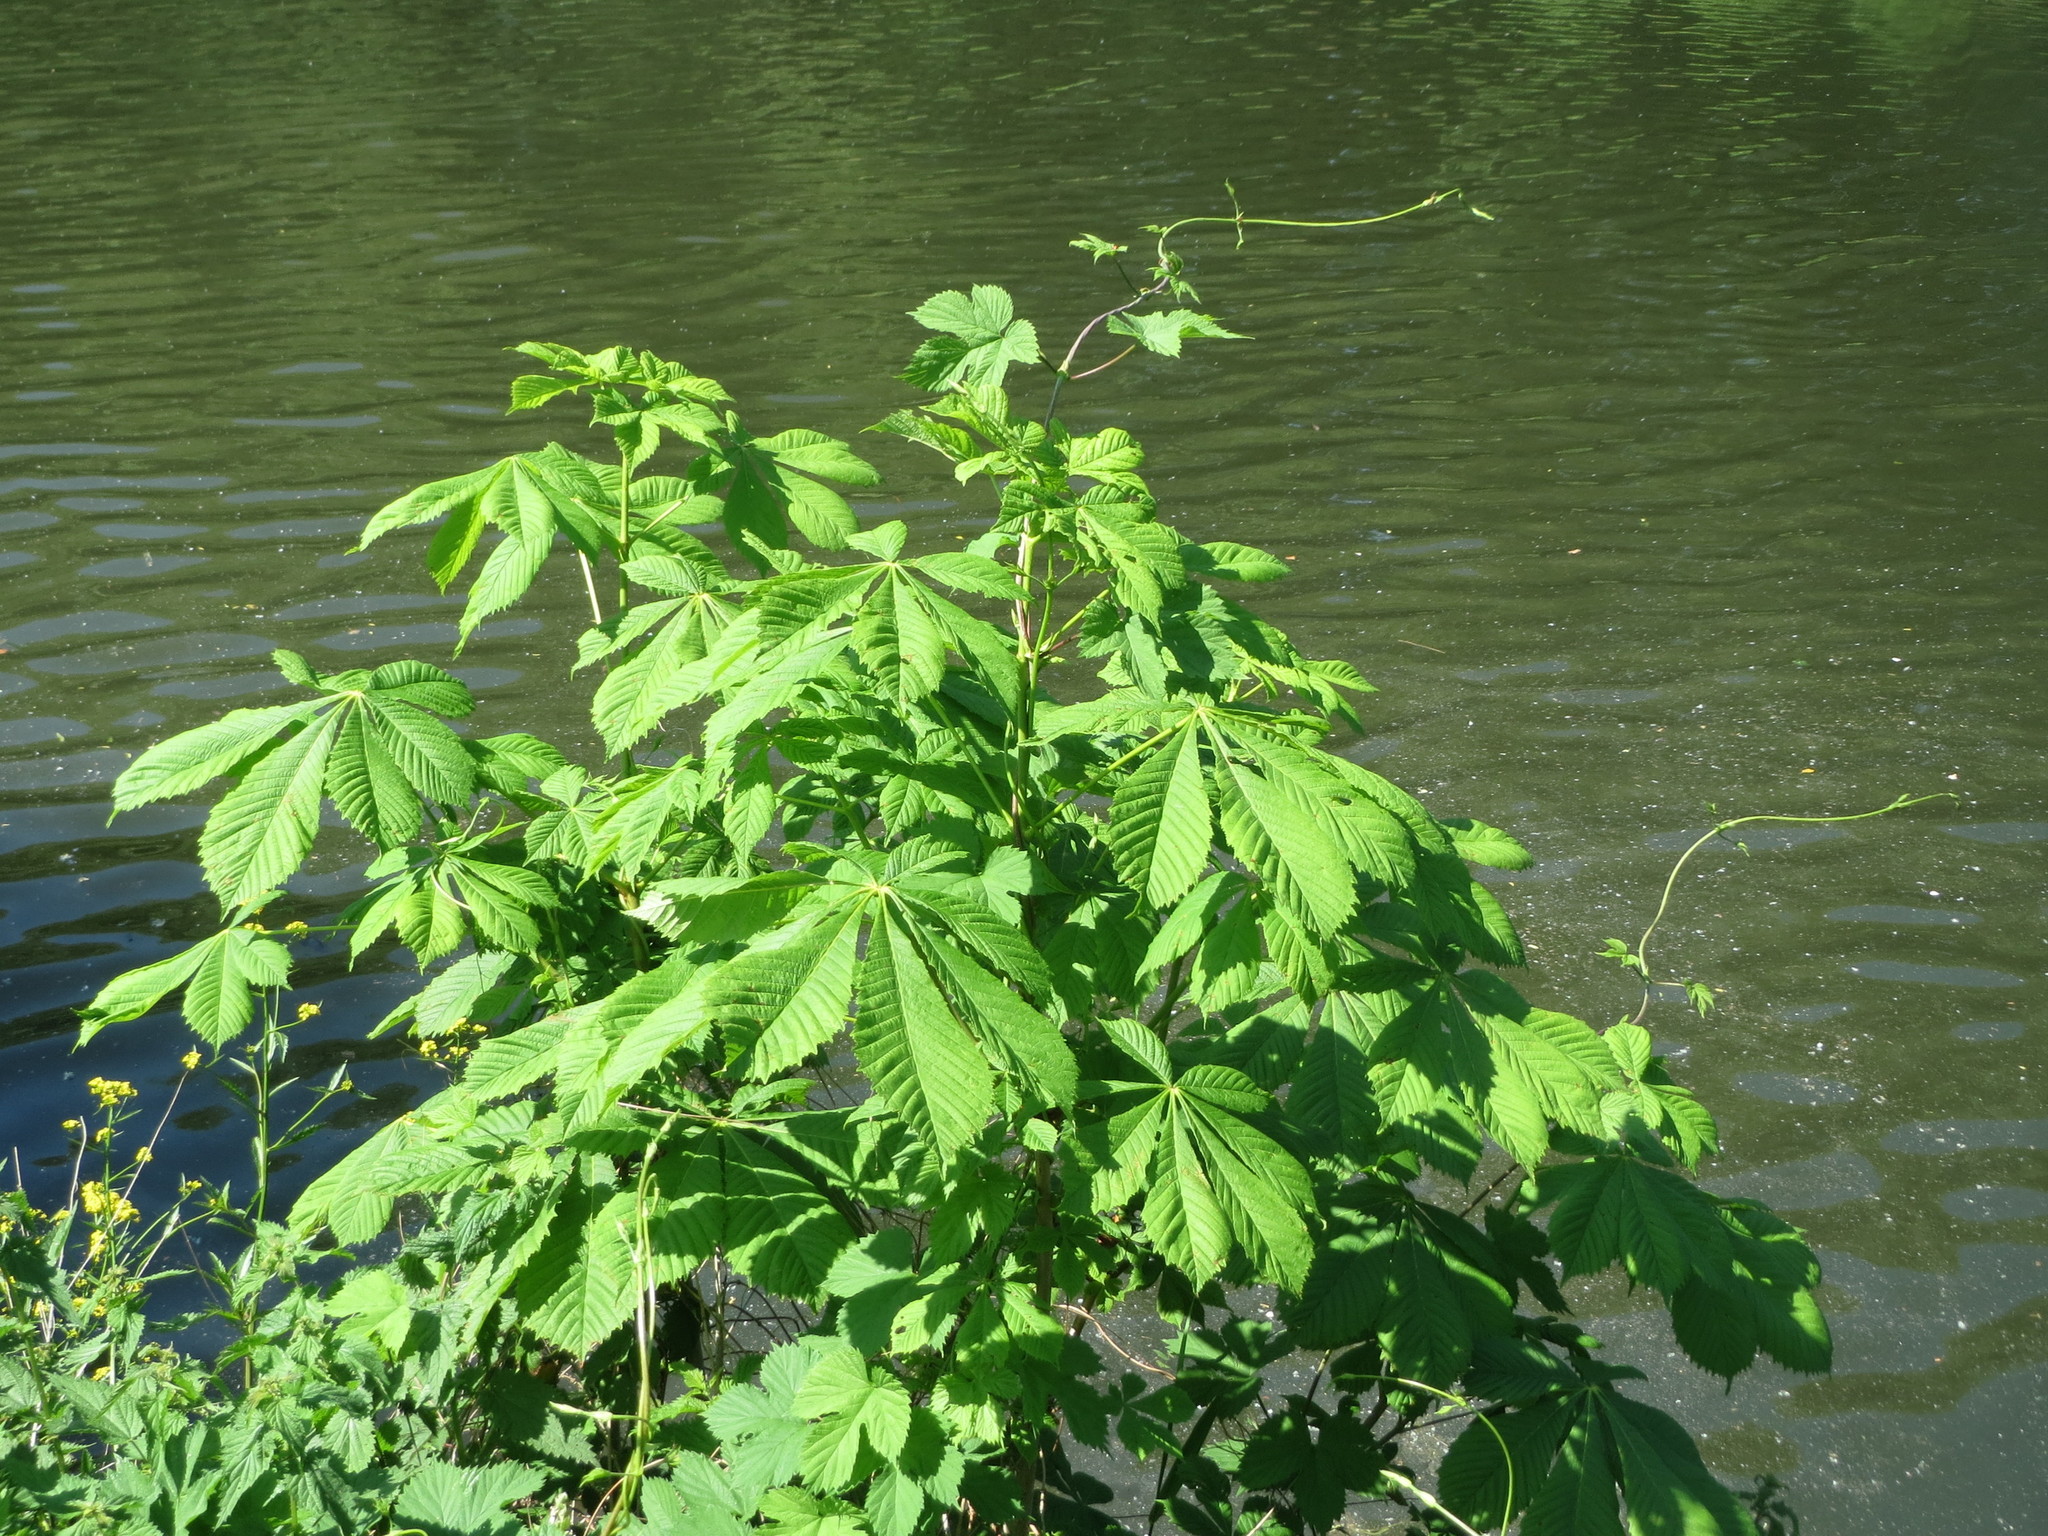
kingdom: Plantae
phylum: Tracheophyta
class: Magnoliopsida
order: Sapindales
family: Sapindaceae
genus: Aesculus
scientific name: Aesculus hippocastanum
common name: Horse-chestnut
